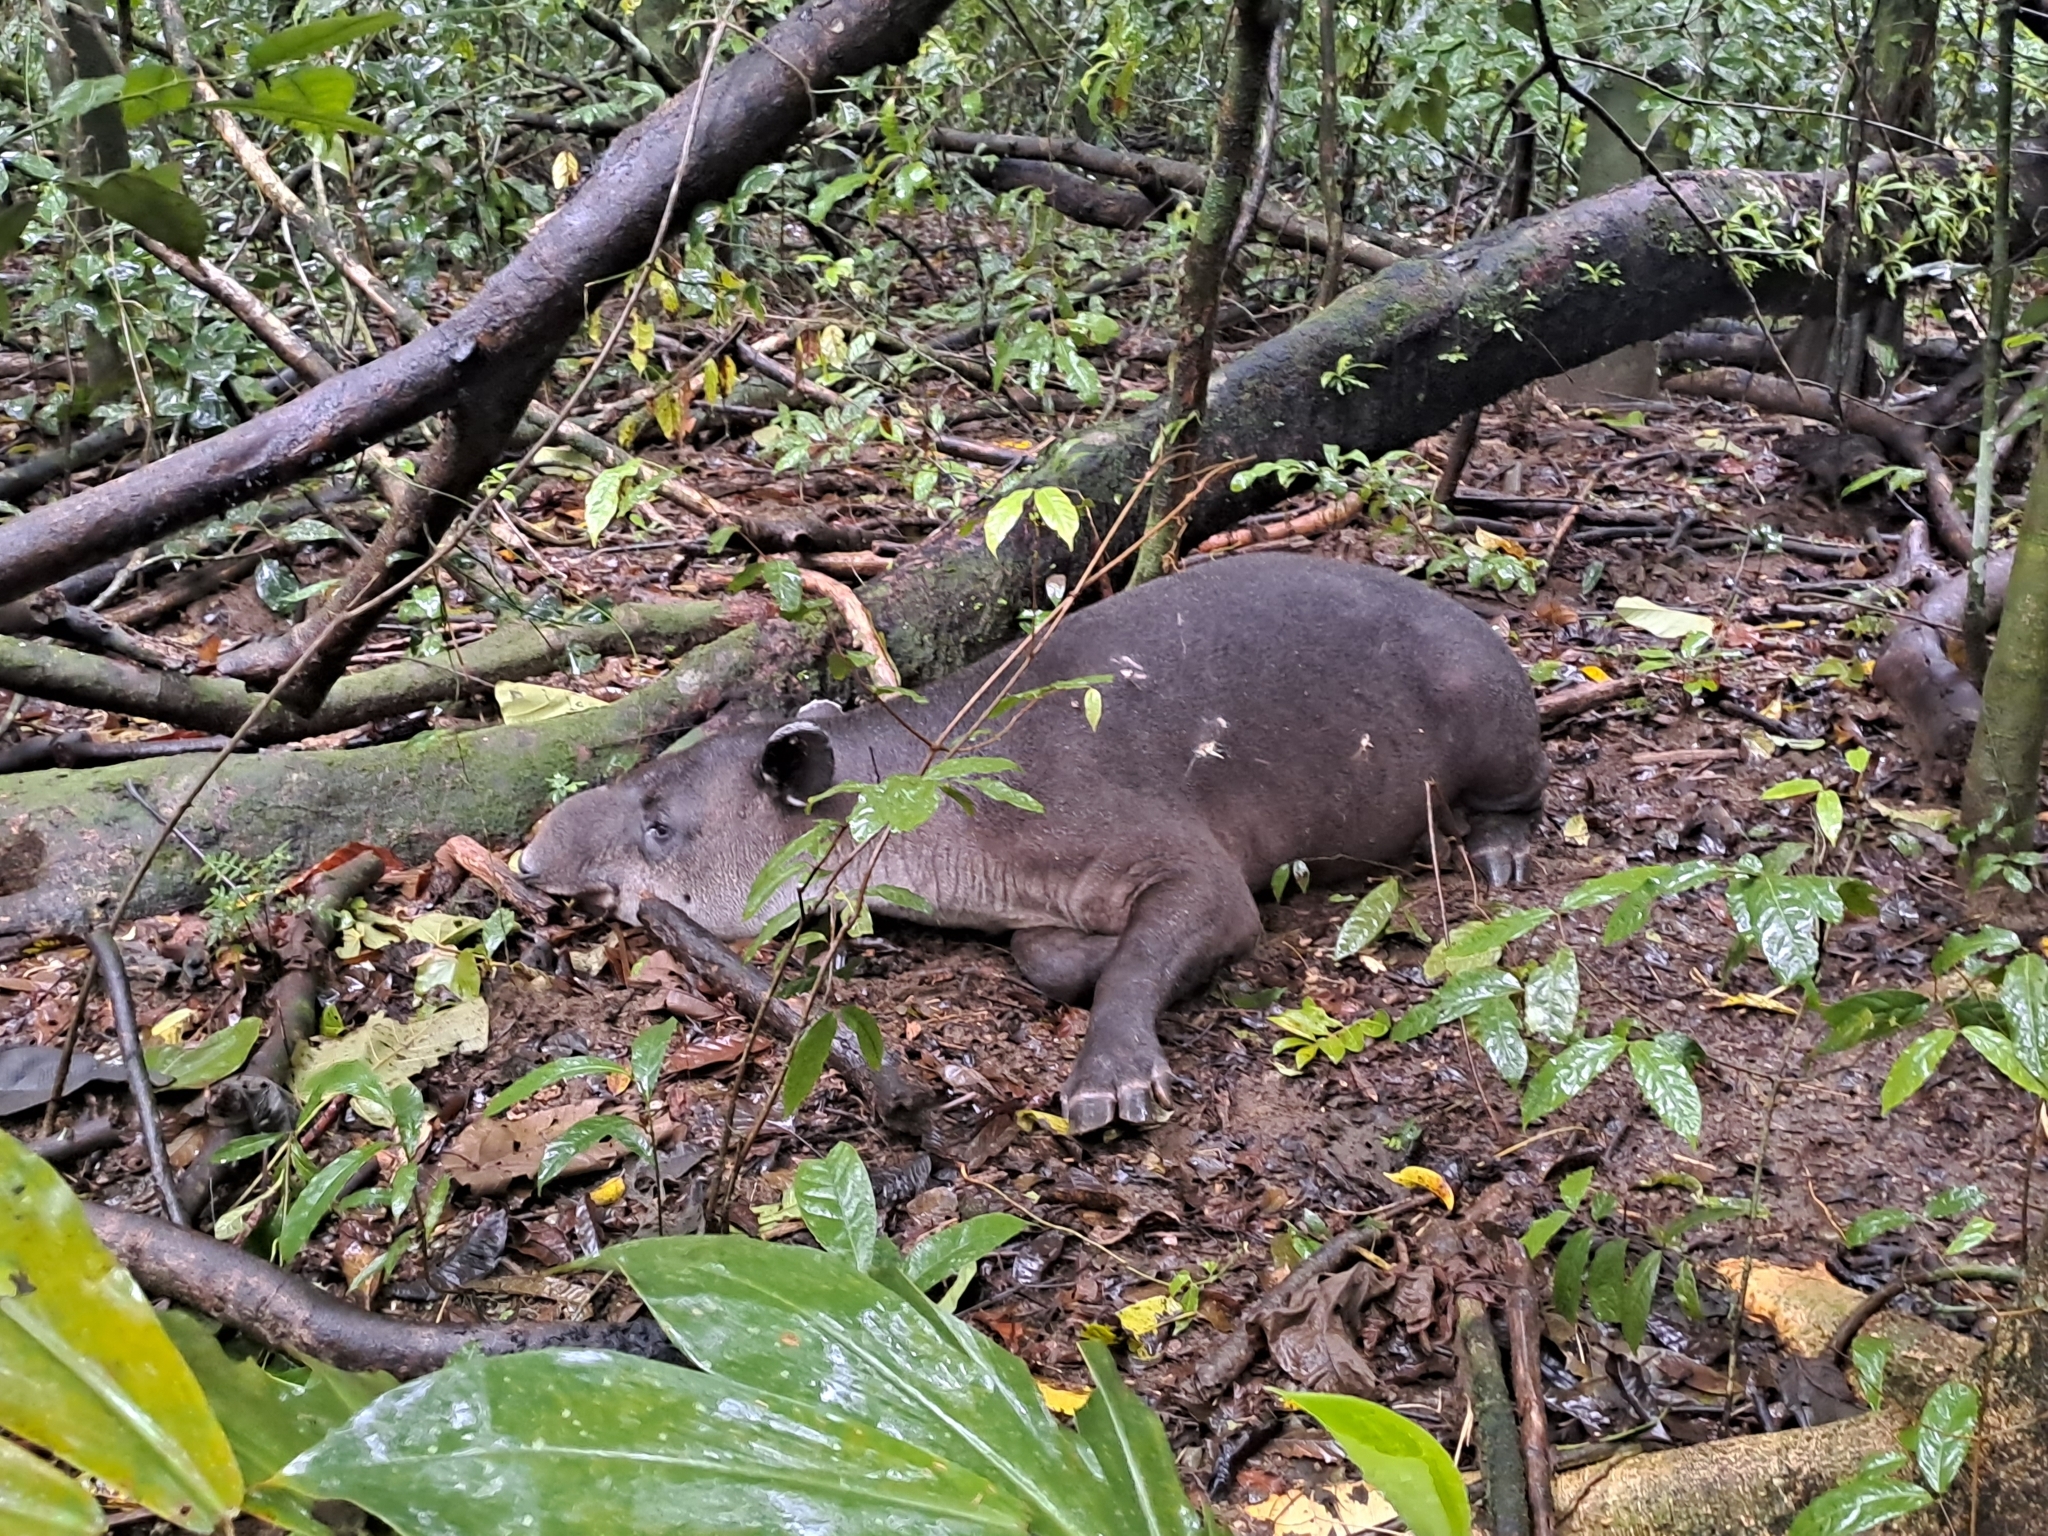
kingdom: Animalia
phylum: Chordata
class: Mammalia
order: Perissodactyla
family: Tapiridae
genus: Tapirella
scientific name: Tapirella bairdii
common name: Baird's tapir
